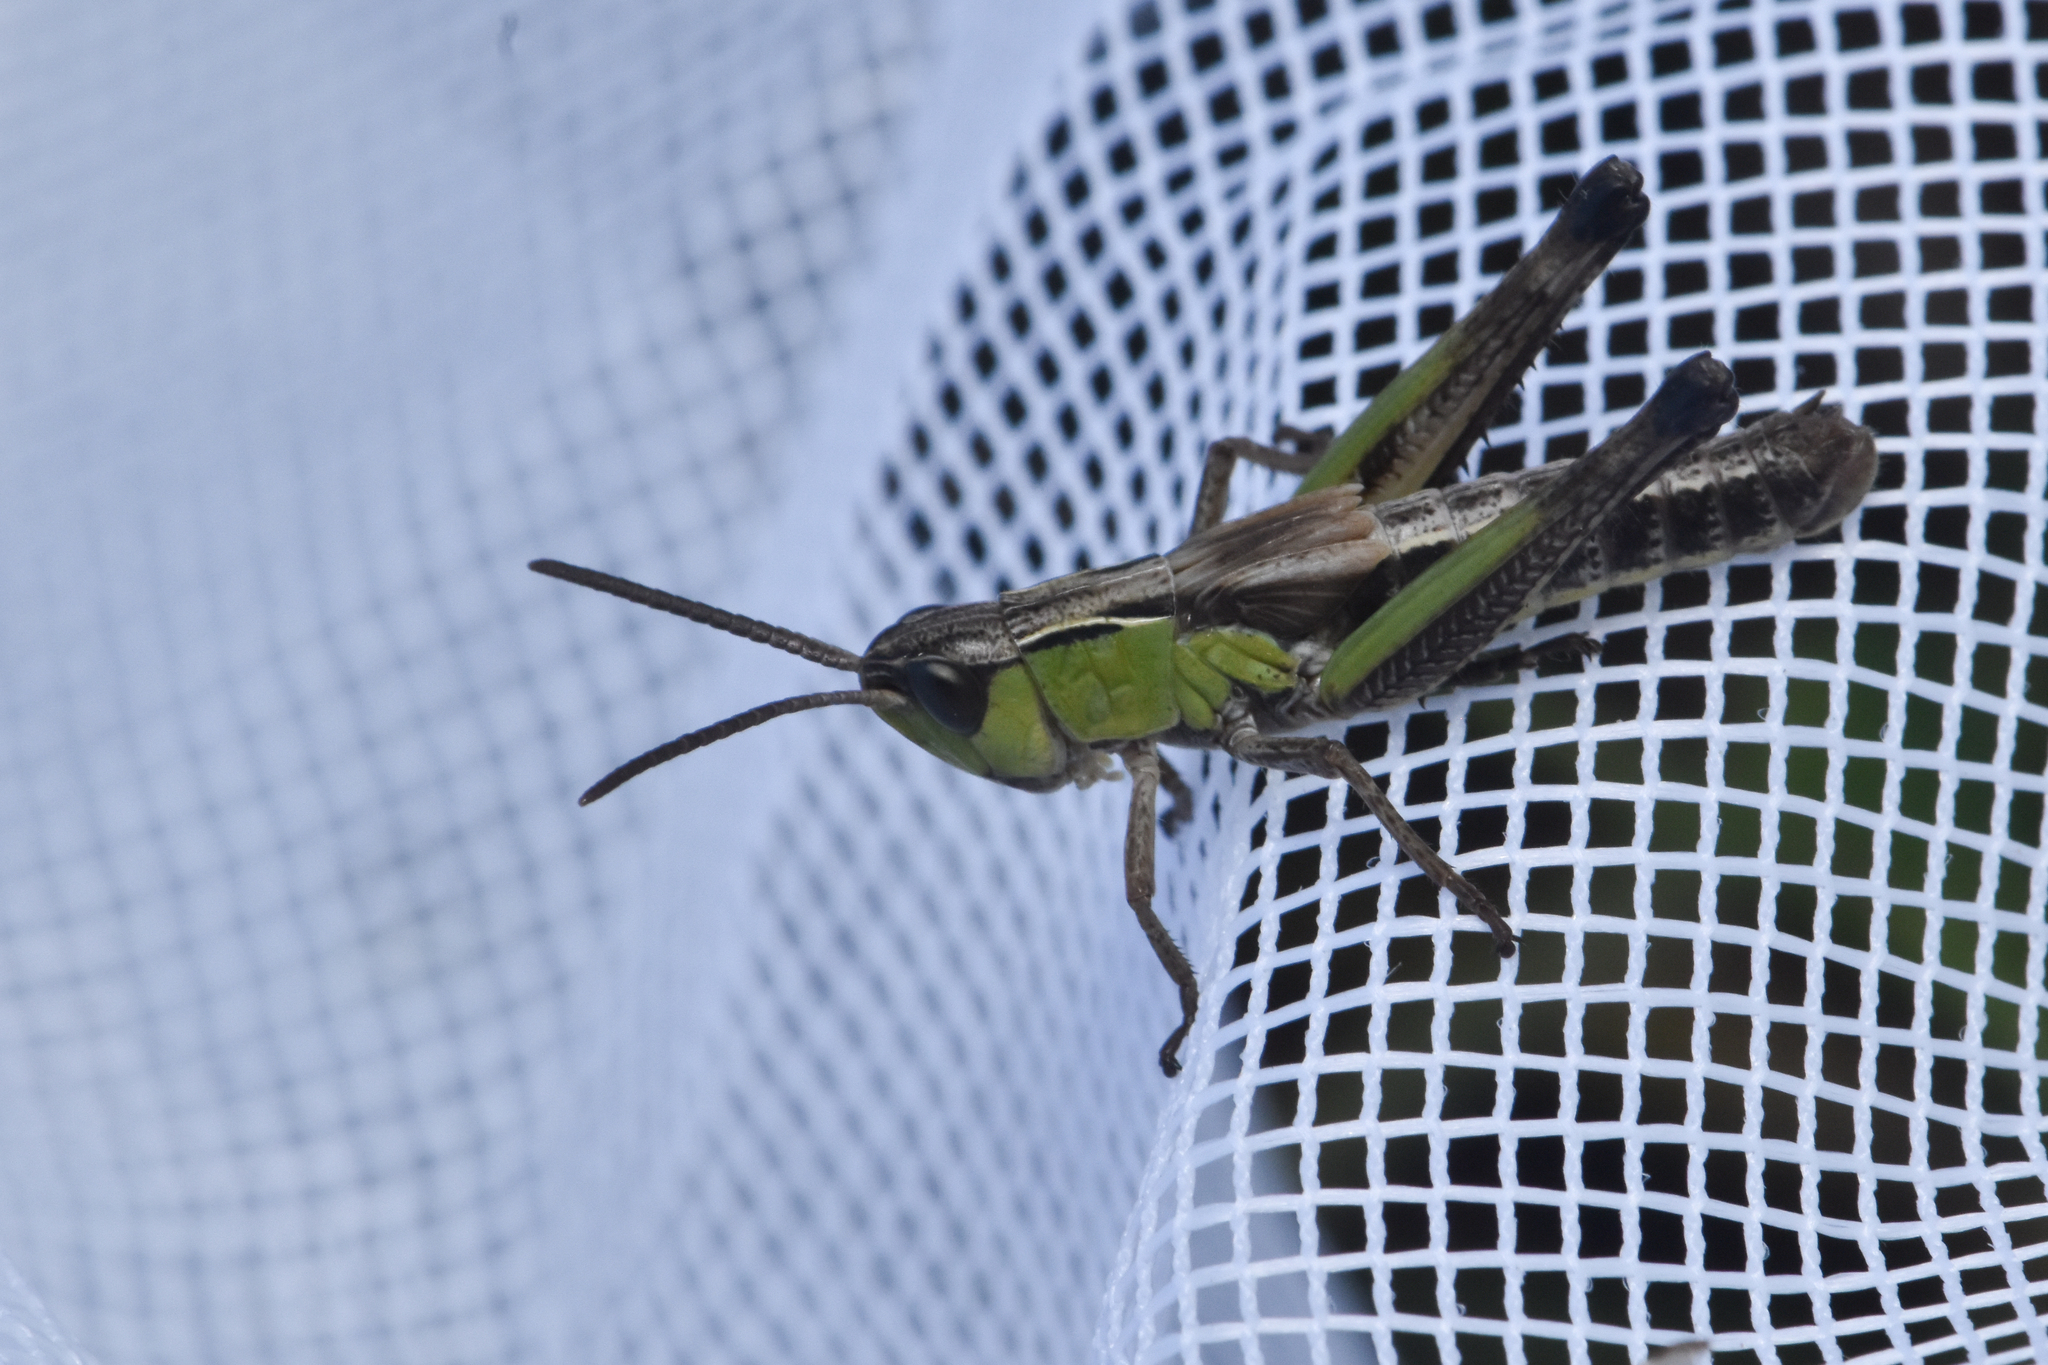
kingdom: Animalia
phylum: Arthropoda
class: Insecta
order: Orthoptera
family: Acrididae
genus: Pseudochorthippus
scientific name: Pseudochorthippus curtipennis
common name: Marsh meadow grasshopper
